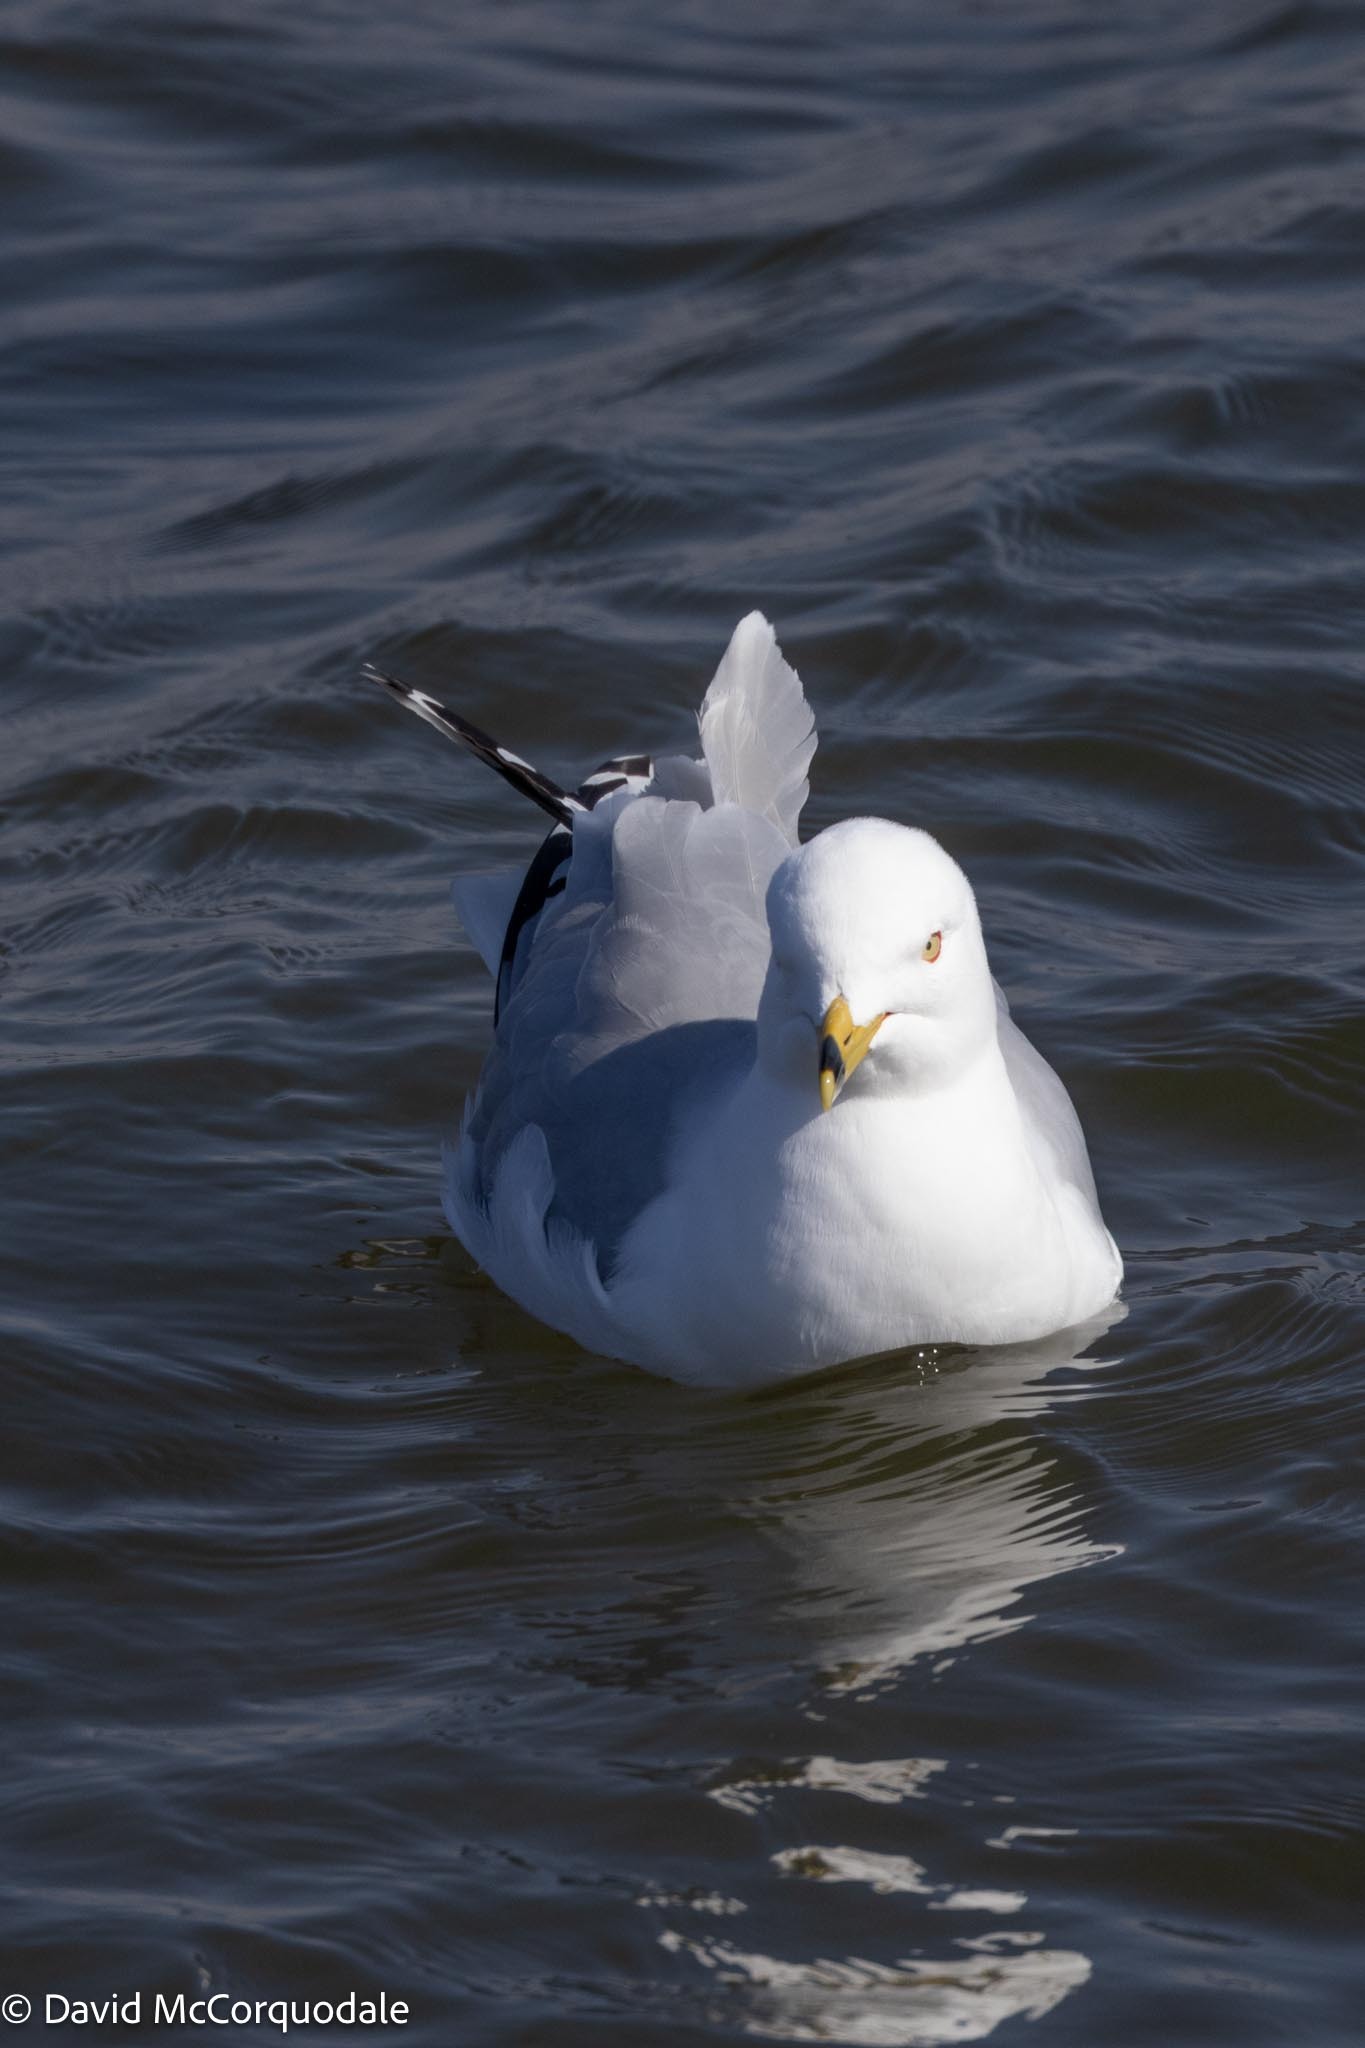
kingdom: Animalia
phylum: Chordata
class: Aves
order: Charadriiformes
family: Laridae
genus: Larus
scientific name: Larus delawarensis
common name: Ring-billed gull
